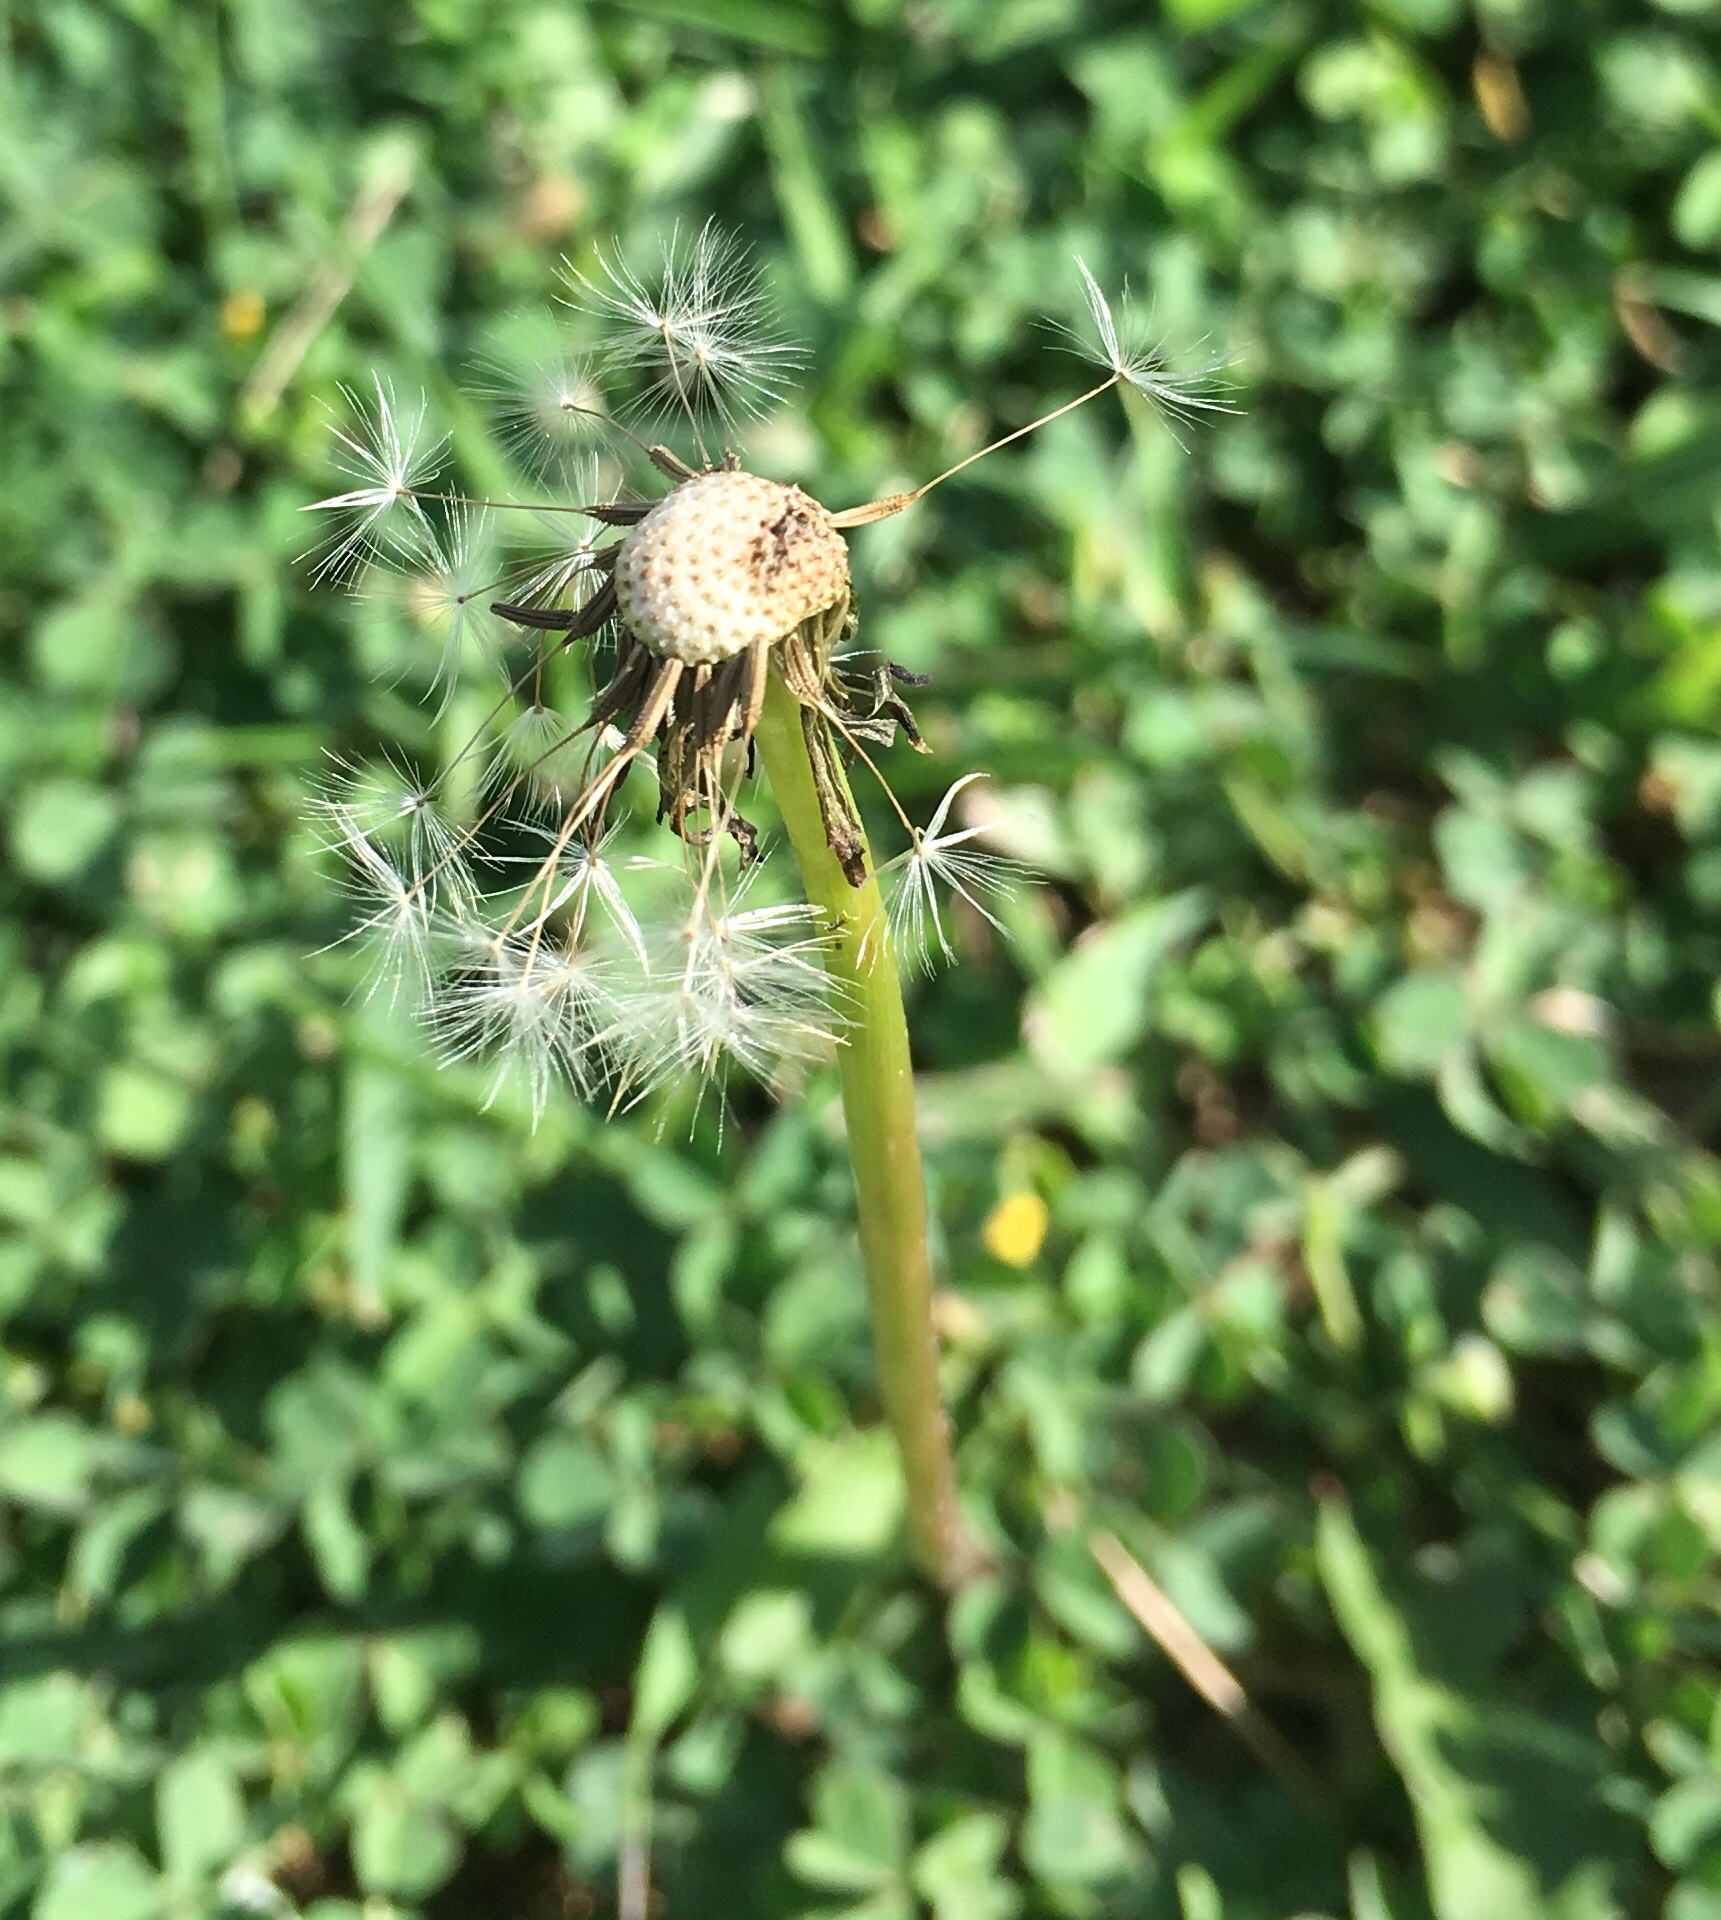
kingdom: Plantae
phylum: Tracheophyta
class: Magnoliopsida
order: Asterales
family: Asteraceae
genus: Taraxacum
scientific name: Taraxacum officinale
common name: Common dandelion
